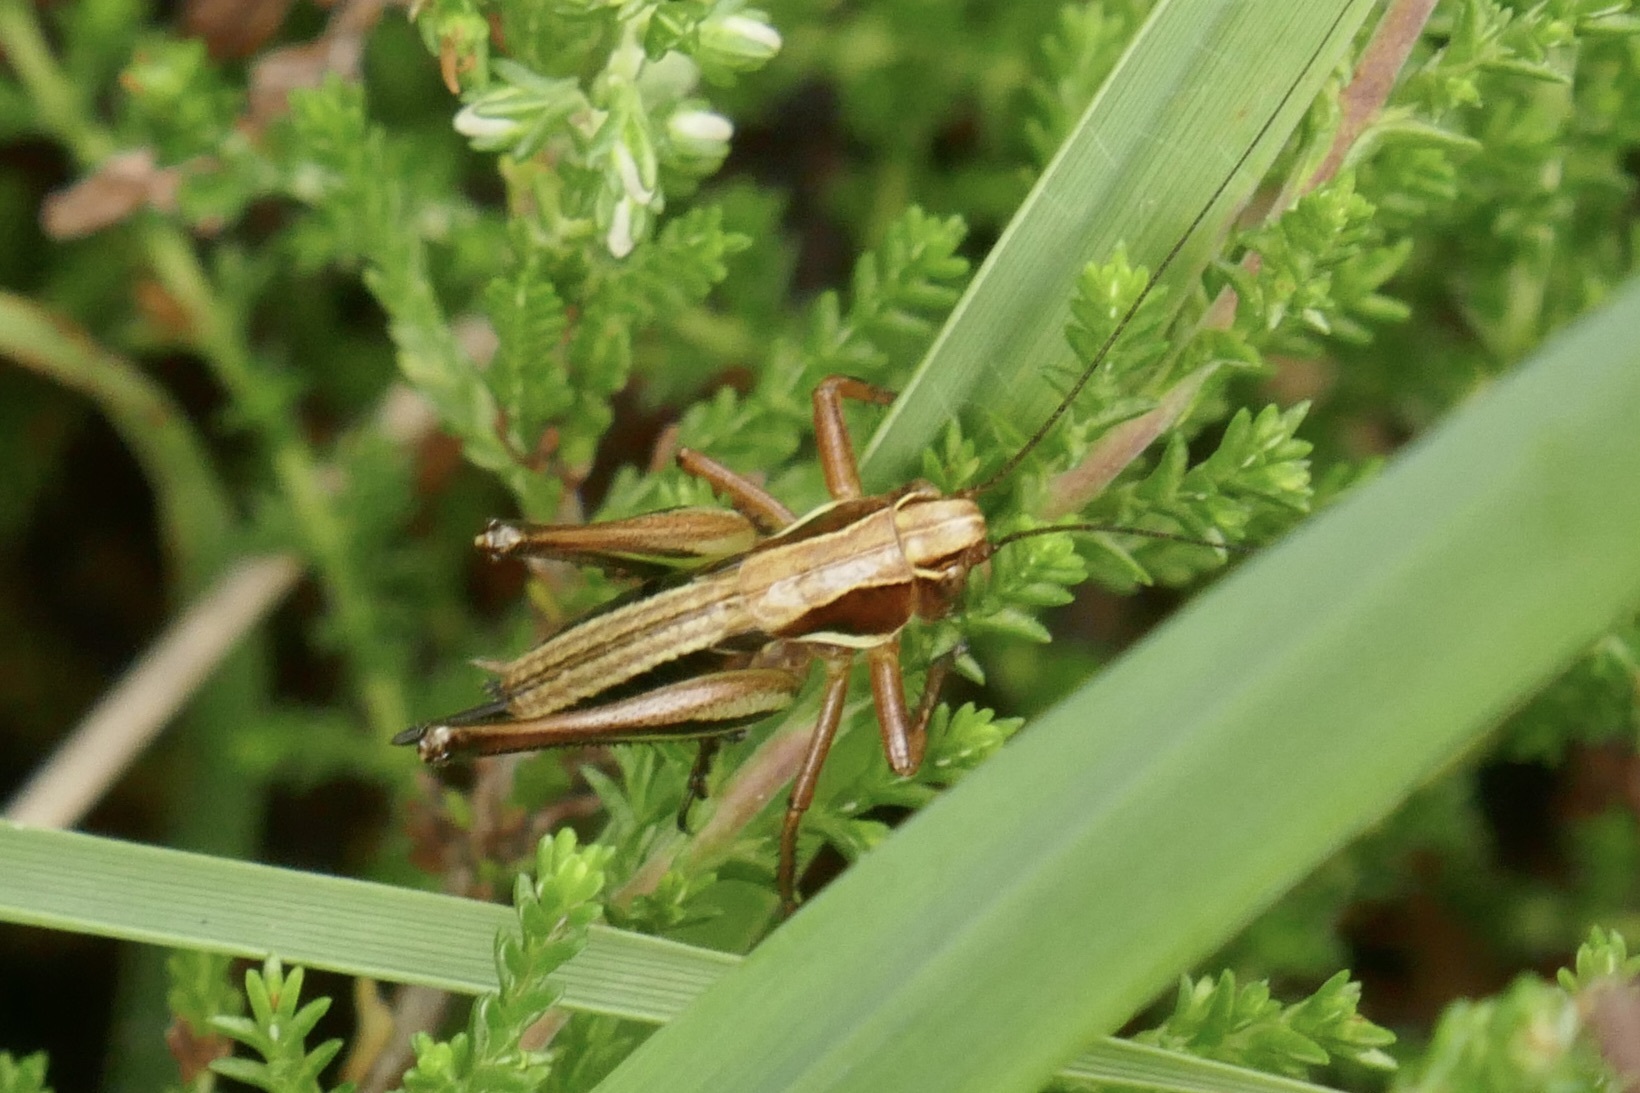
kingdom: Animalia
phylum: Arthropoda
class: Insecta
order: Orthoptera
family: Tettigoniidae
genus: Metrioptera
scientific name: Metrioptera brachyptera
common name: Bog bush-cricket
